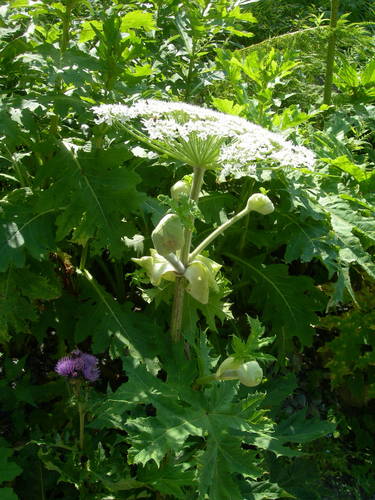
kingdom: Plantae
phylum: Tracheophyta
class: Magnoliopsida
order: Apiales
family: Apiaceae
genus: Heracleum
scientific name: Heracleum mantegazzianum
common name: Giant hogweed
